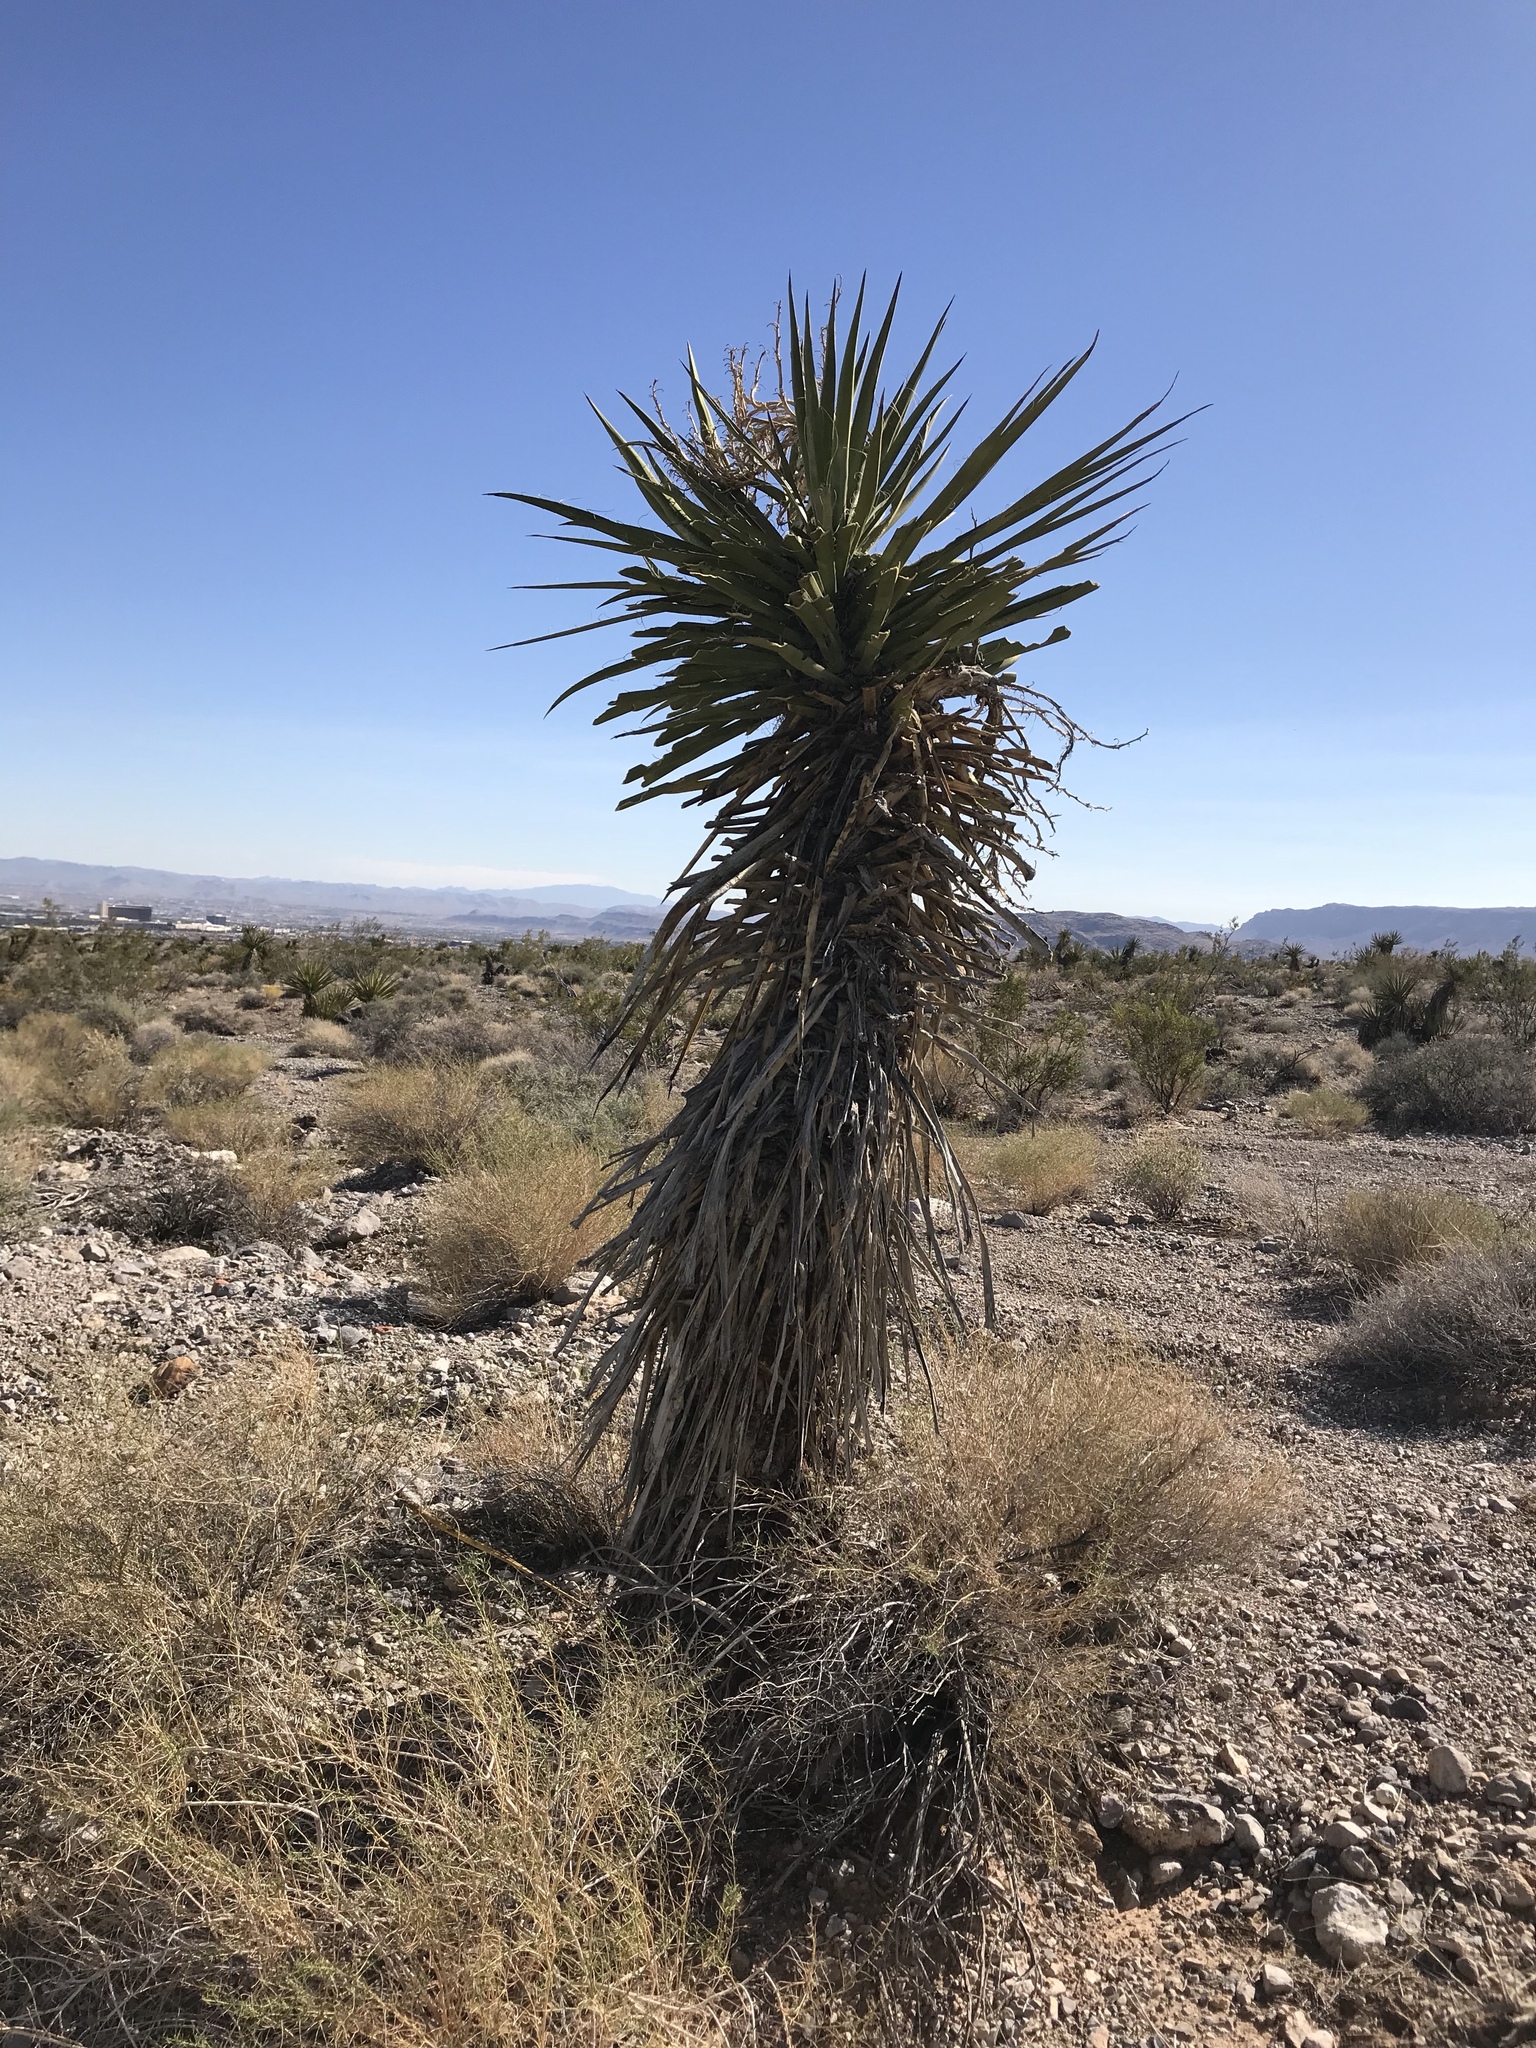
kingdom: Plantae
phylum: Tracheophyta
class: Liliopsida
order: Asparagales
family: Asparagaceae
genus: Yucca
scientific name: Yucca schidigera
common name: Mojave yucca
